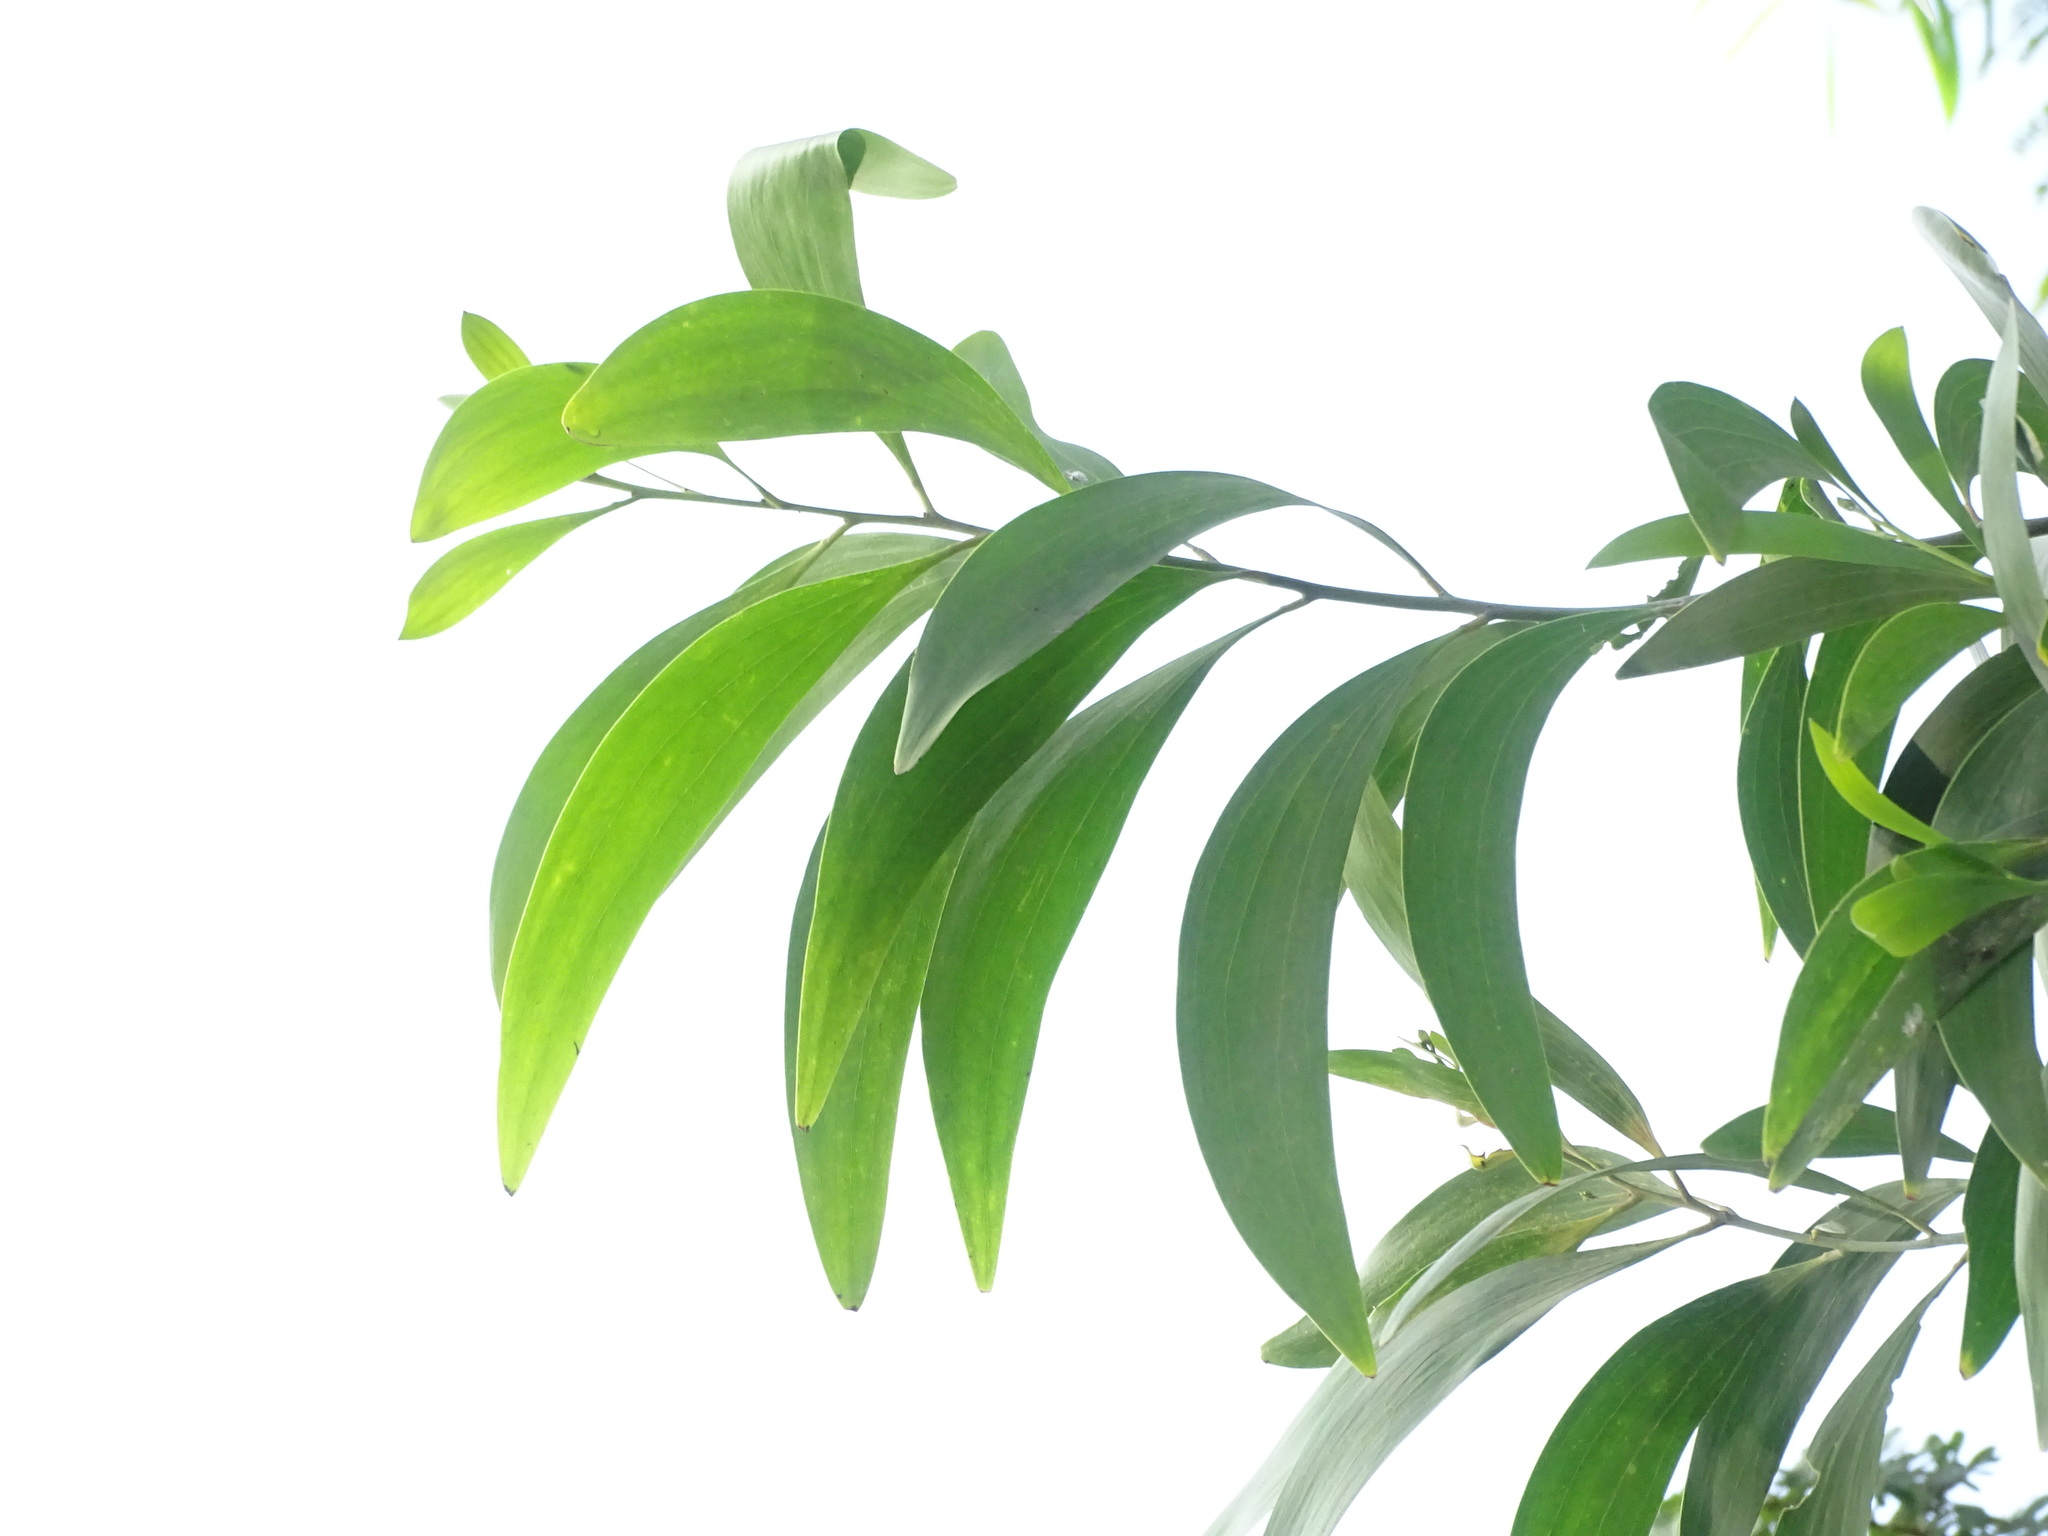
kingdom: Plantae
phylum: Tracheophyta
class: Magnoliopsida
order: Fabales
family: Fabaceae
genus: Acacia
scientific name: Acacia auriculiformis
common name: Earleaf acacia
